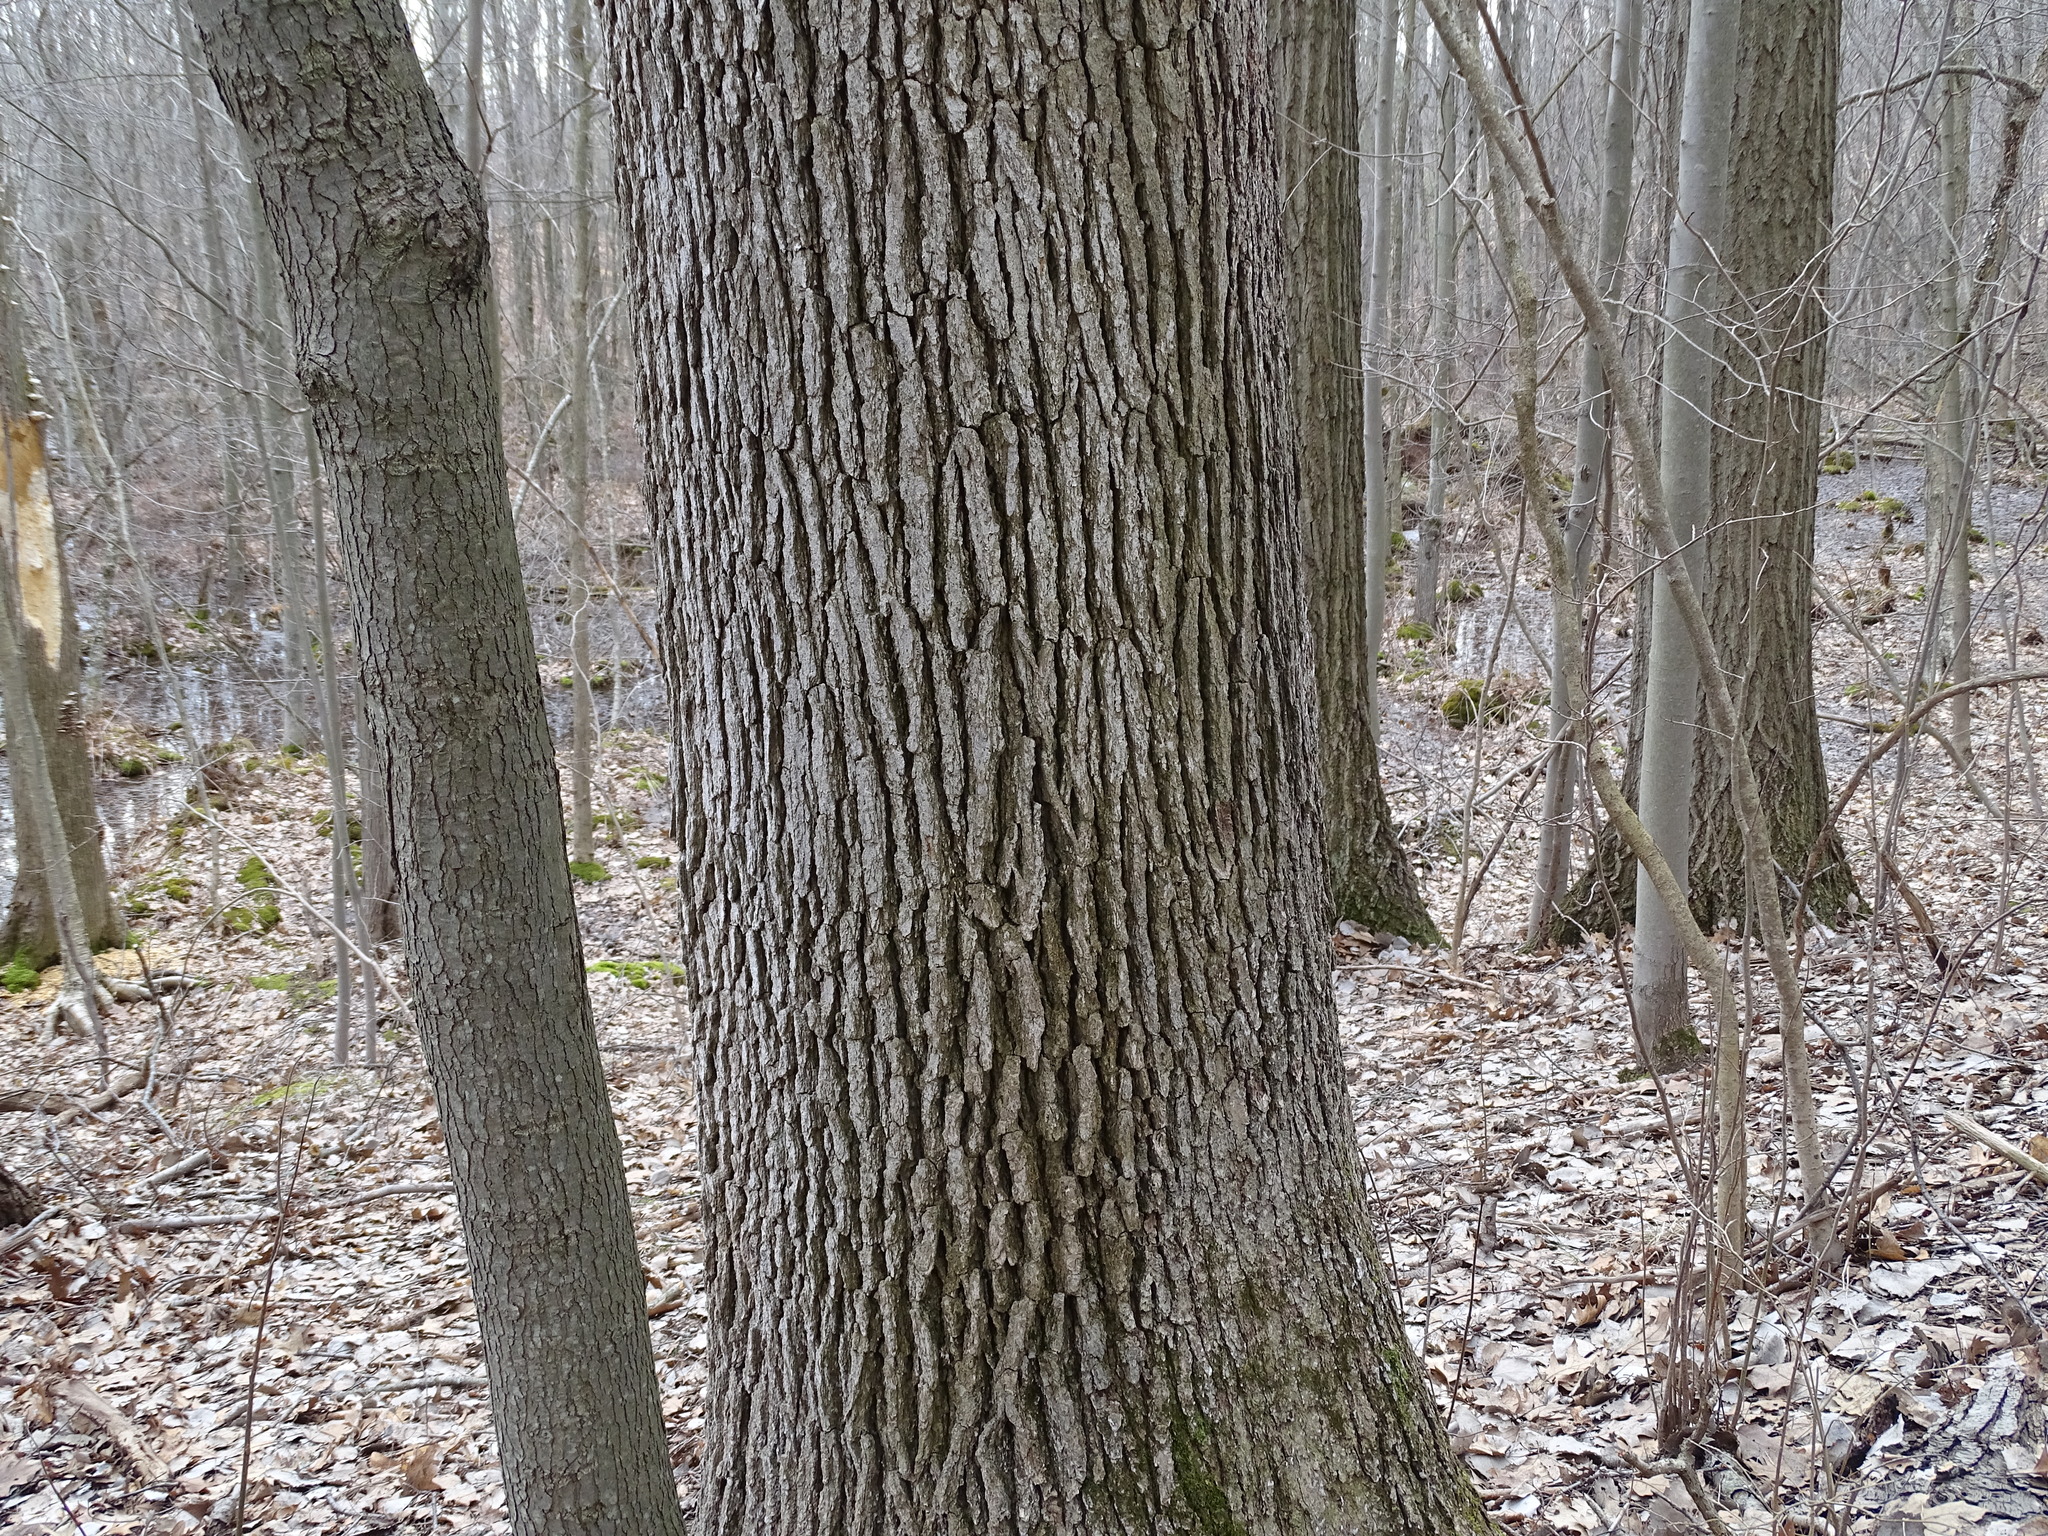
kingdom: Plantae
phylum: Tracheophyta
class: Magnoliopsida
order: Fagales
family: Fagaceae
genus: Quercus
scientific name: Quercus alba
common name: White oak
